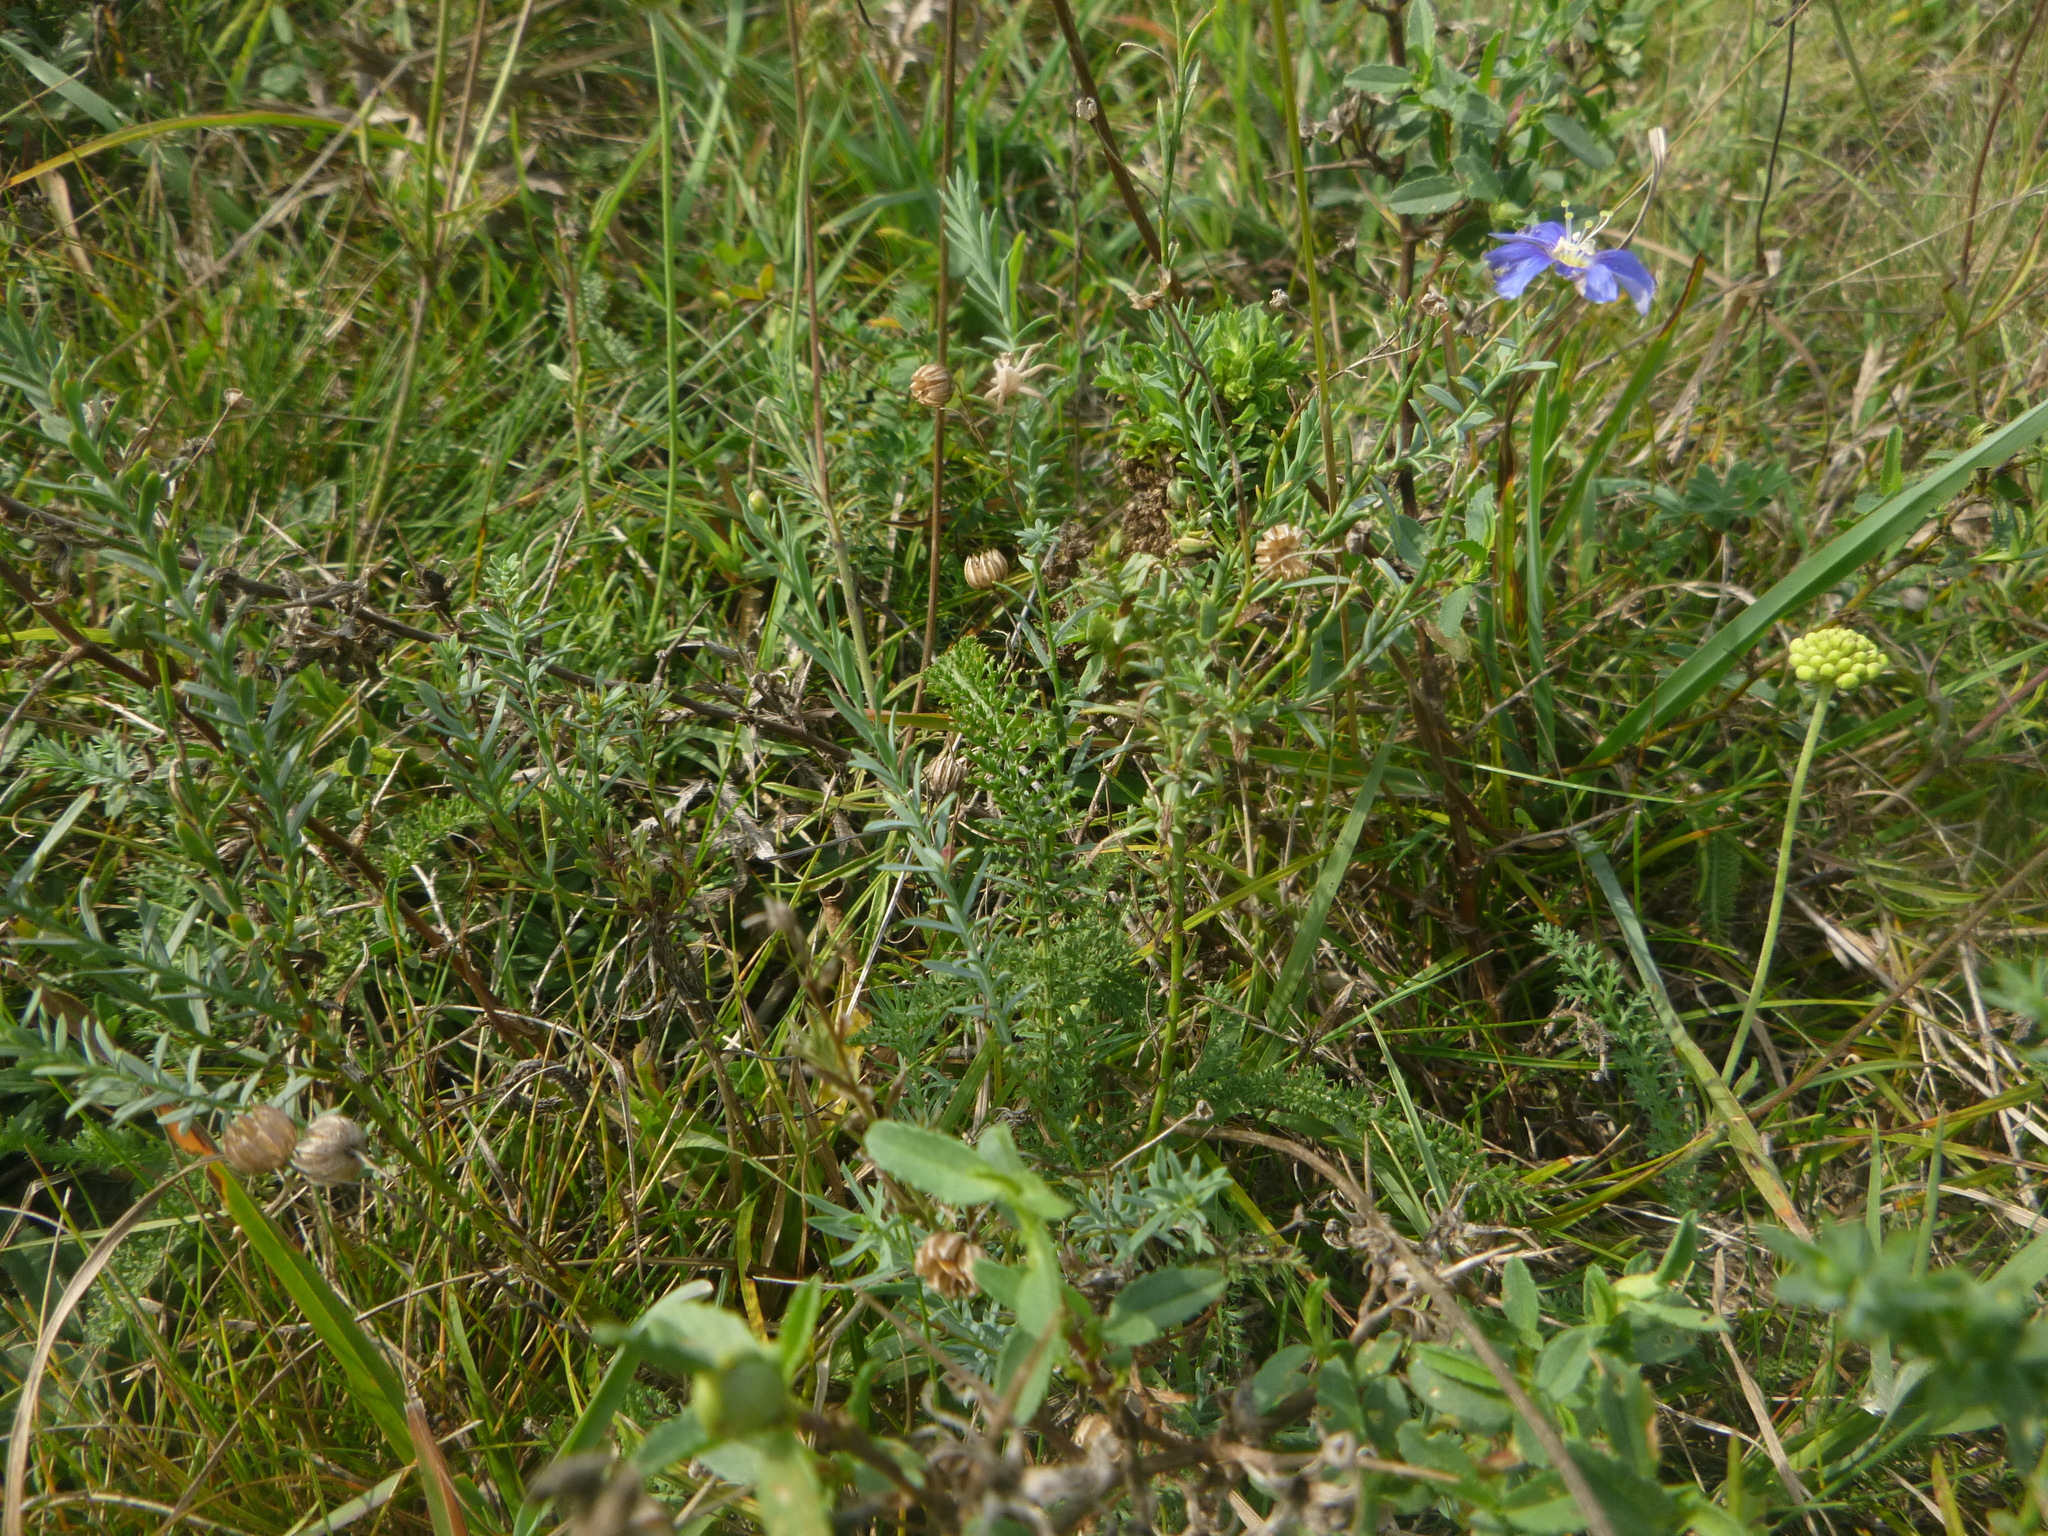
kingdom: Plantae
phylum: Tracheophyta
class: Magnoliopsida
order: Malpighiales
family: Linaceae
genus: Linum
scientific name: Linum austriacum
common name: Austrian flax
